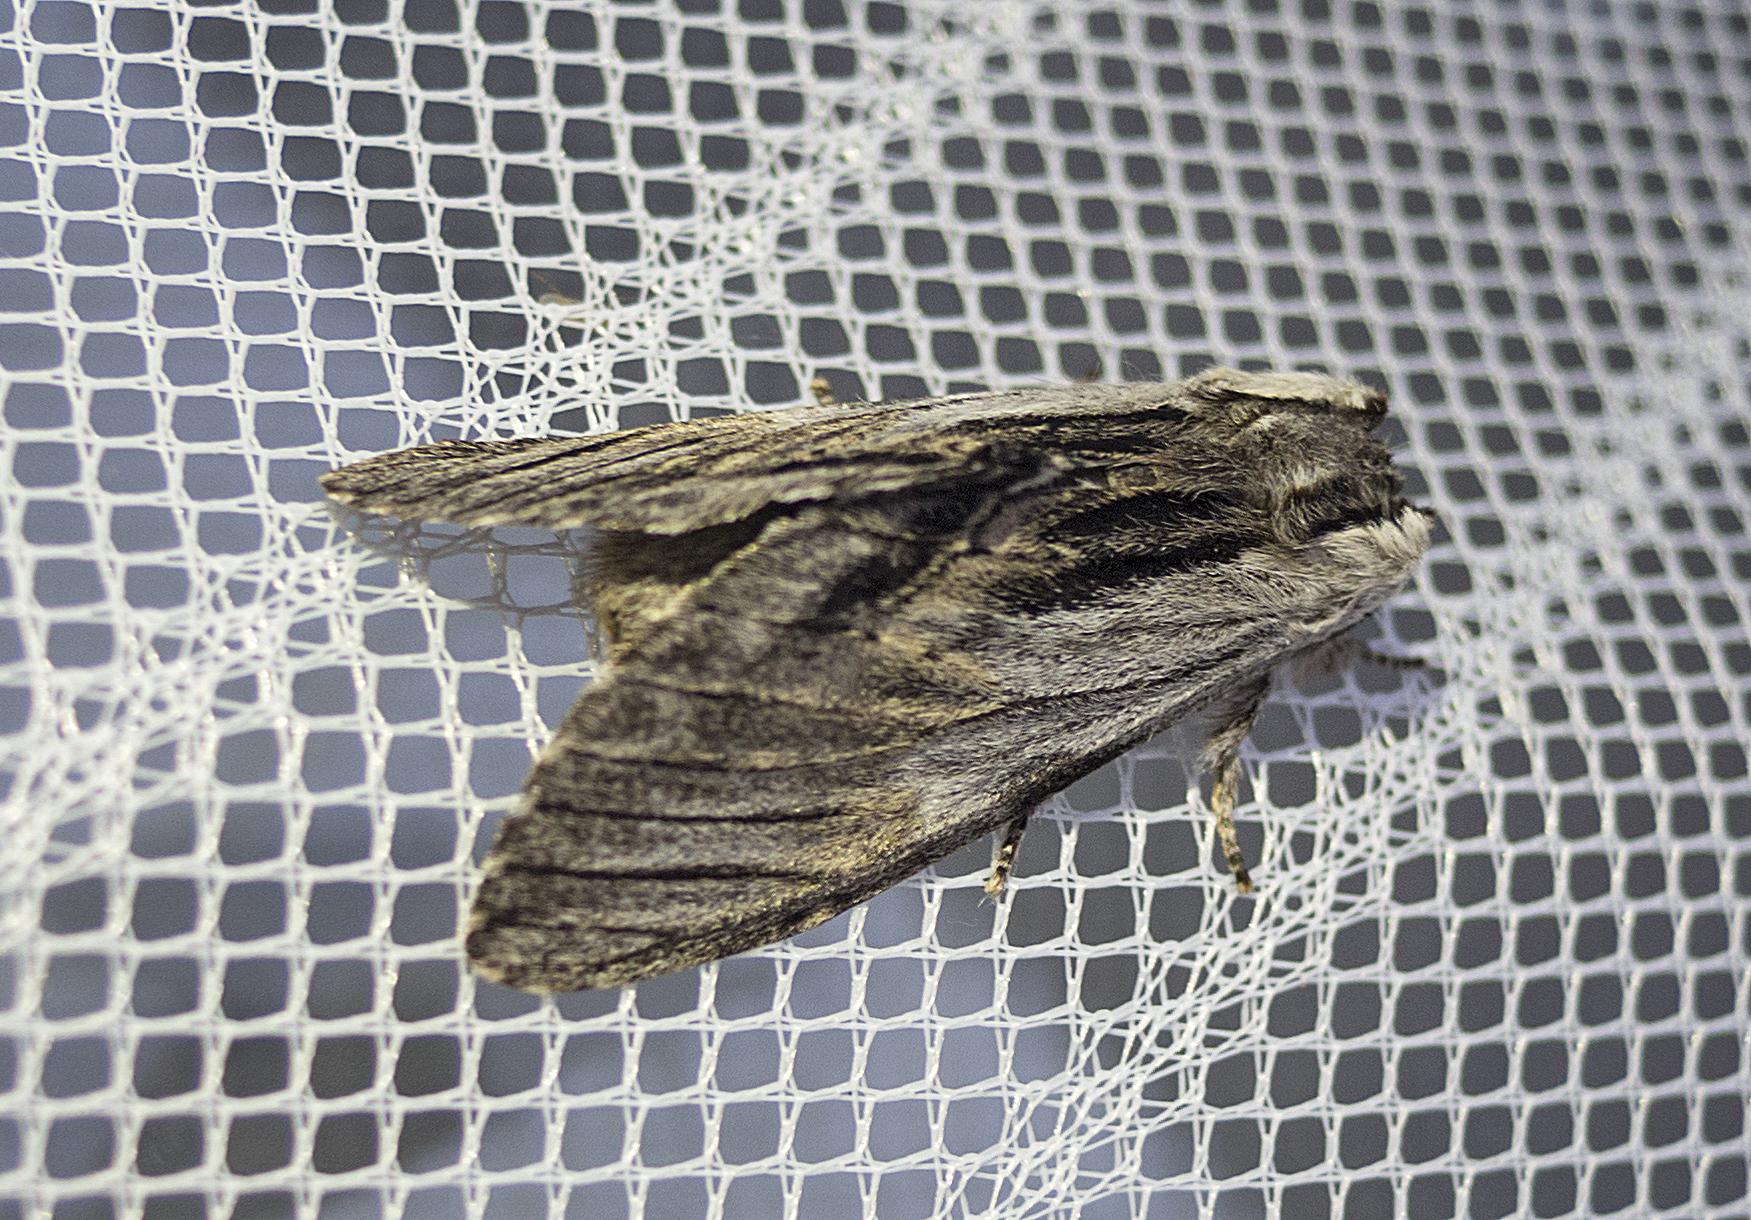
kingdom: Animalia
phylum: Arthropoda
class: Insecta
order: Lepidoptera
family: Notodontidae
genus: Harpyia
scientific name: Harpyia milhauseri
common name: Tawny prominent
